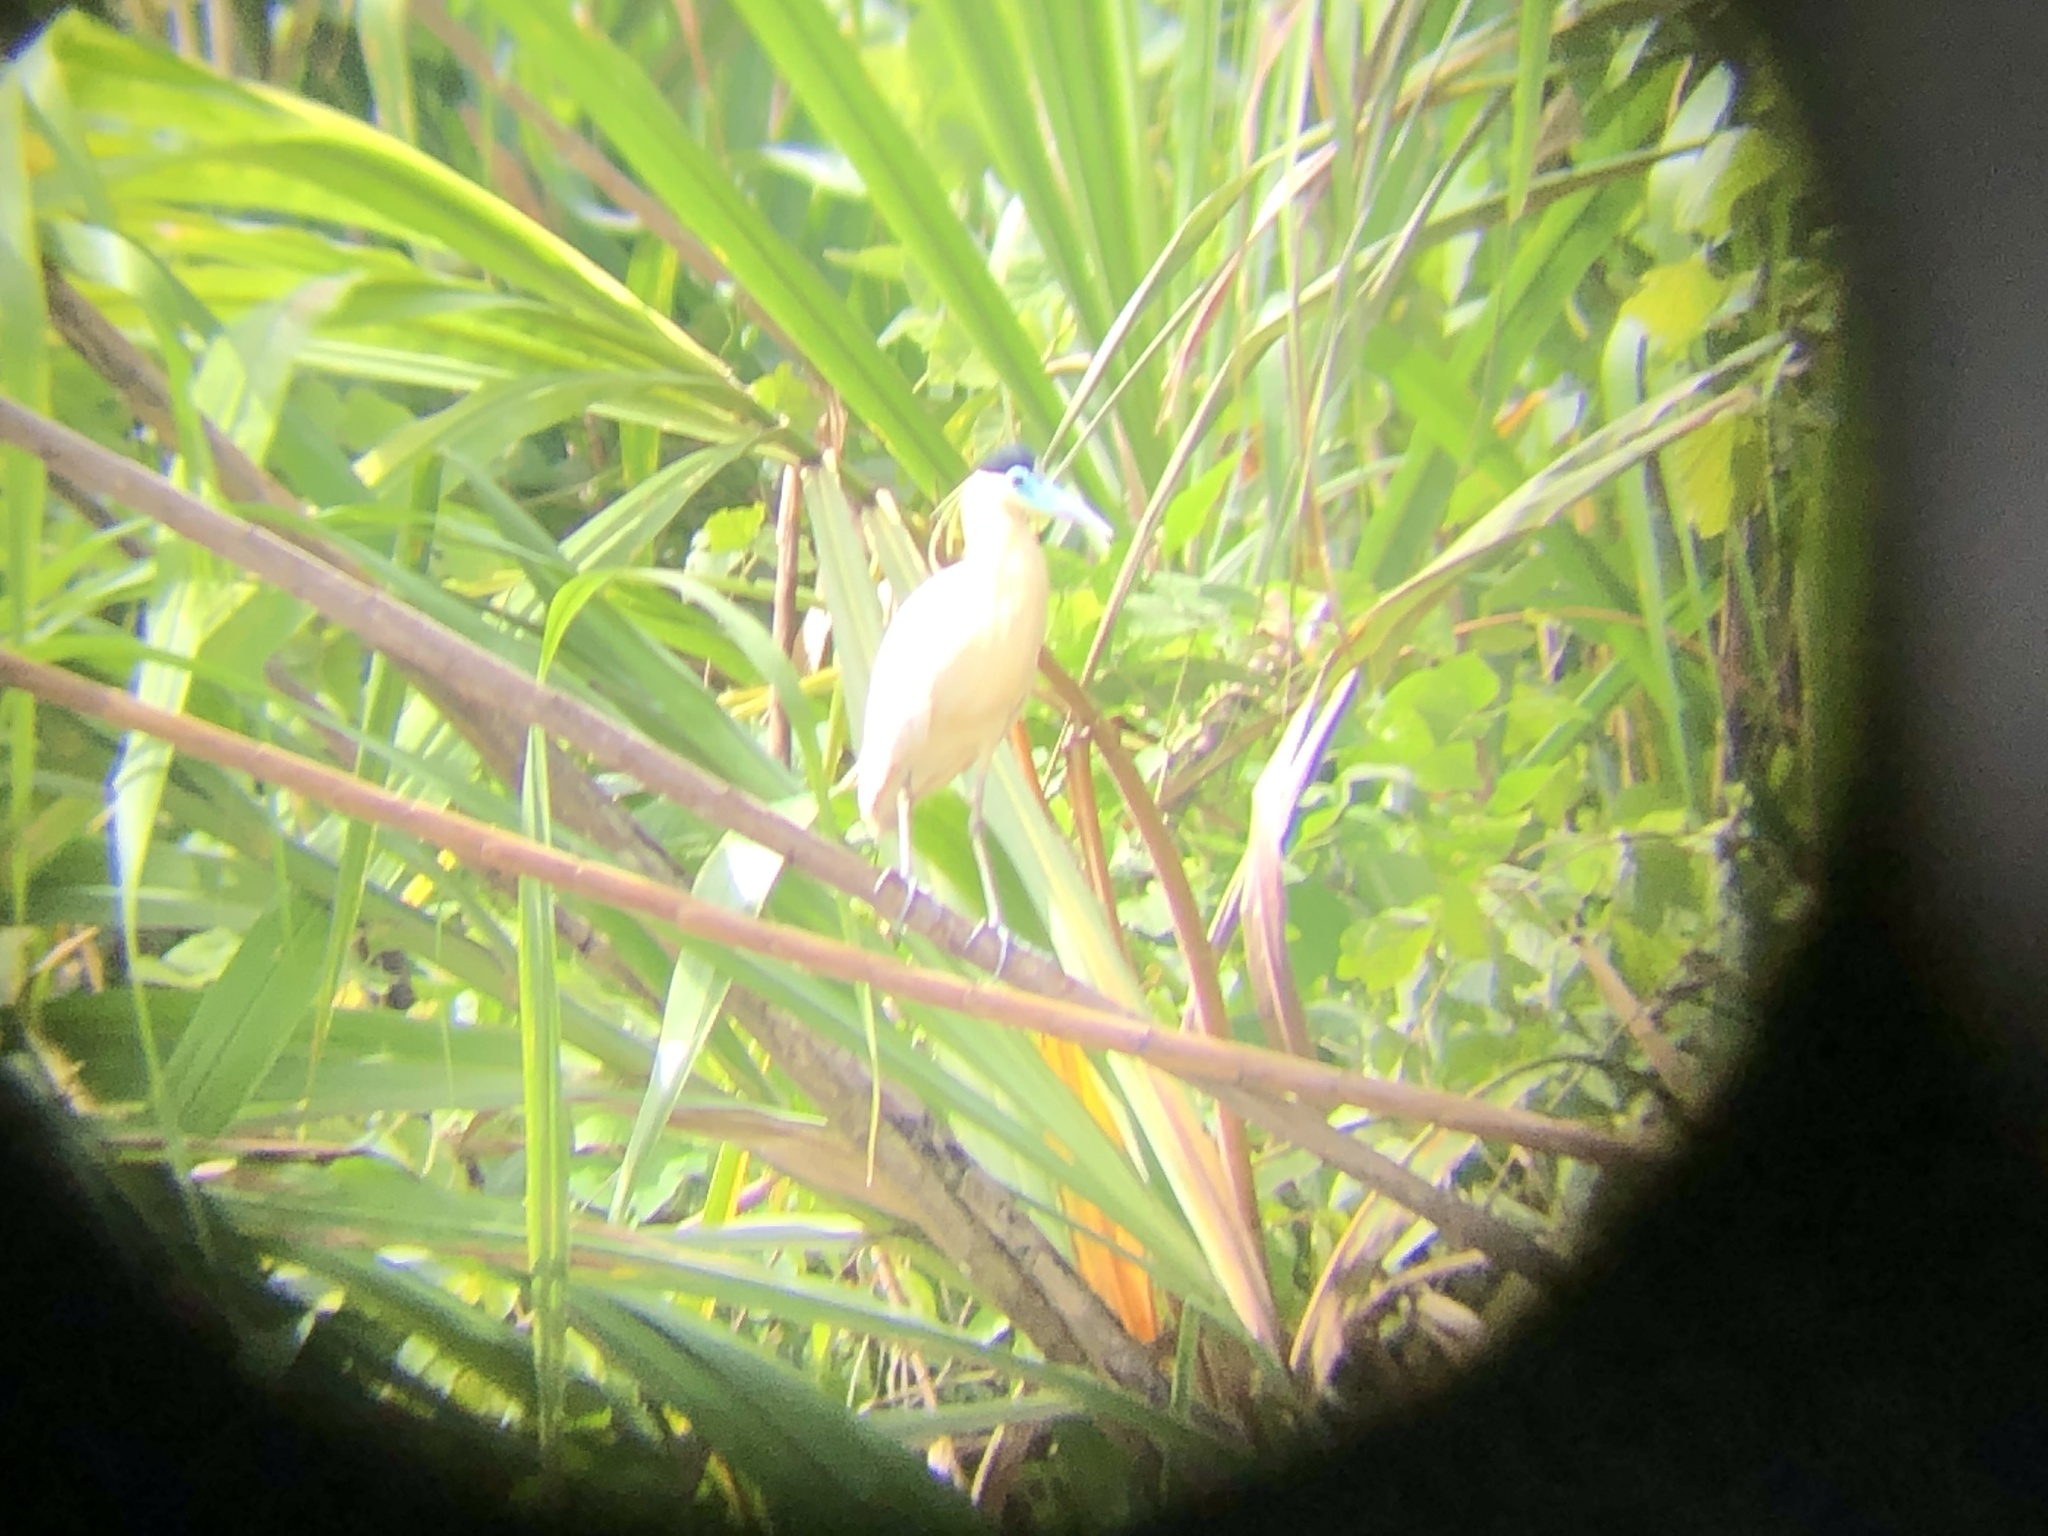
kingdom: Animalia
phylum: Chordata
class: Aves
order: Pelecaniformes
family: Ardeidae
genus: Pilherodius
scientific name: Pilherodius pileatus
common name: Capped heron
